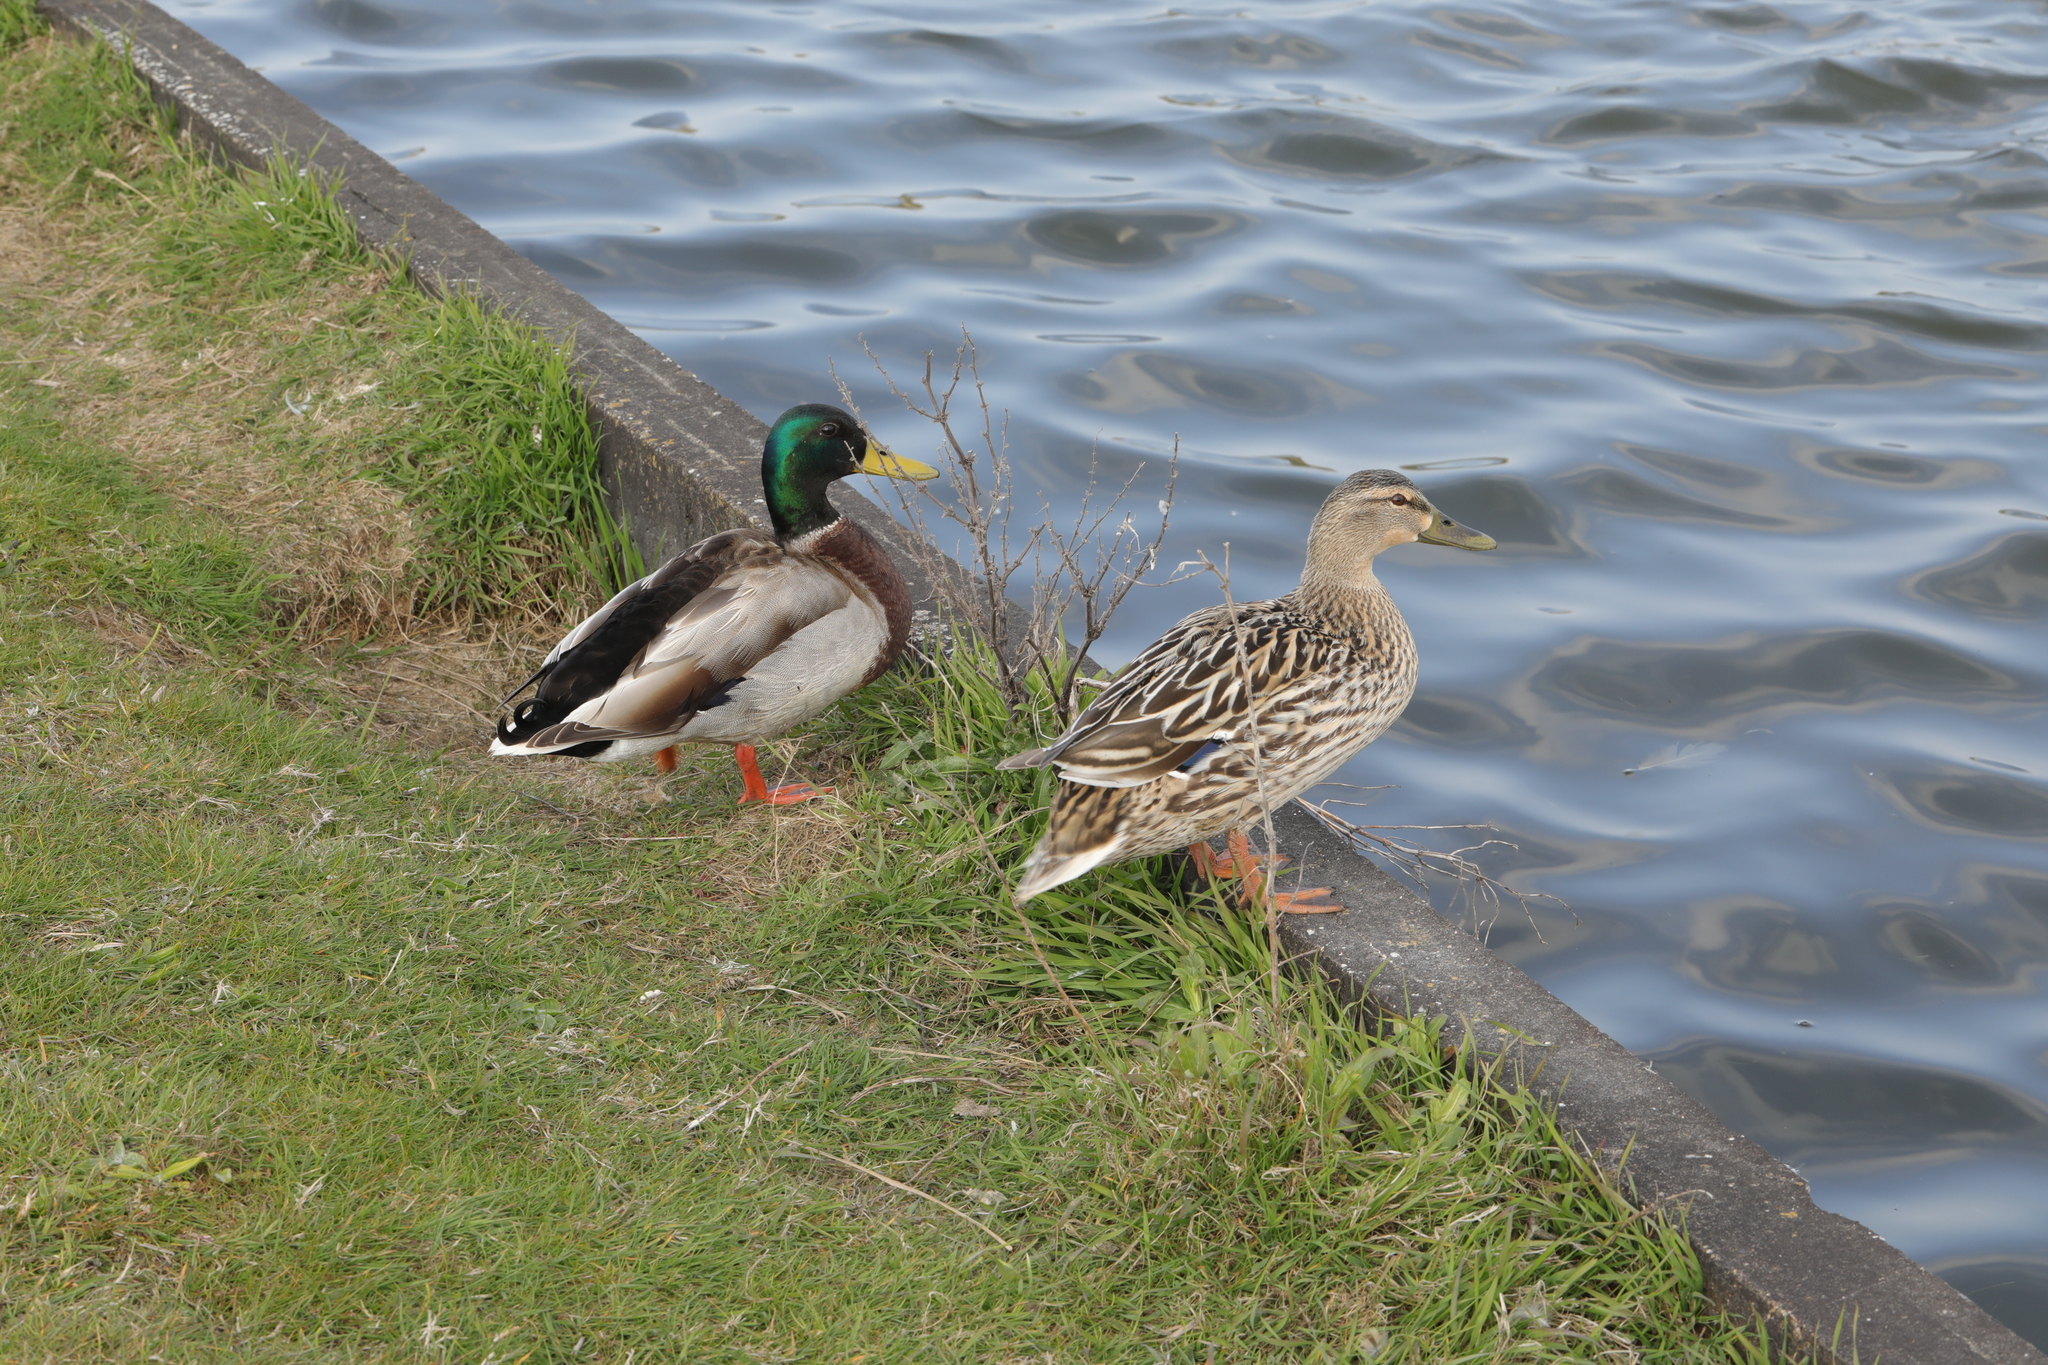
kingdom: Animalia
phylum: Chordata
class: Aves
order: Anseriformes
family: Anatidae
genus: Anas
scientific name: Anas platyrhynchos
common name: Mallard
